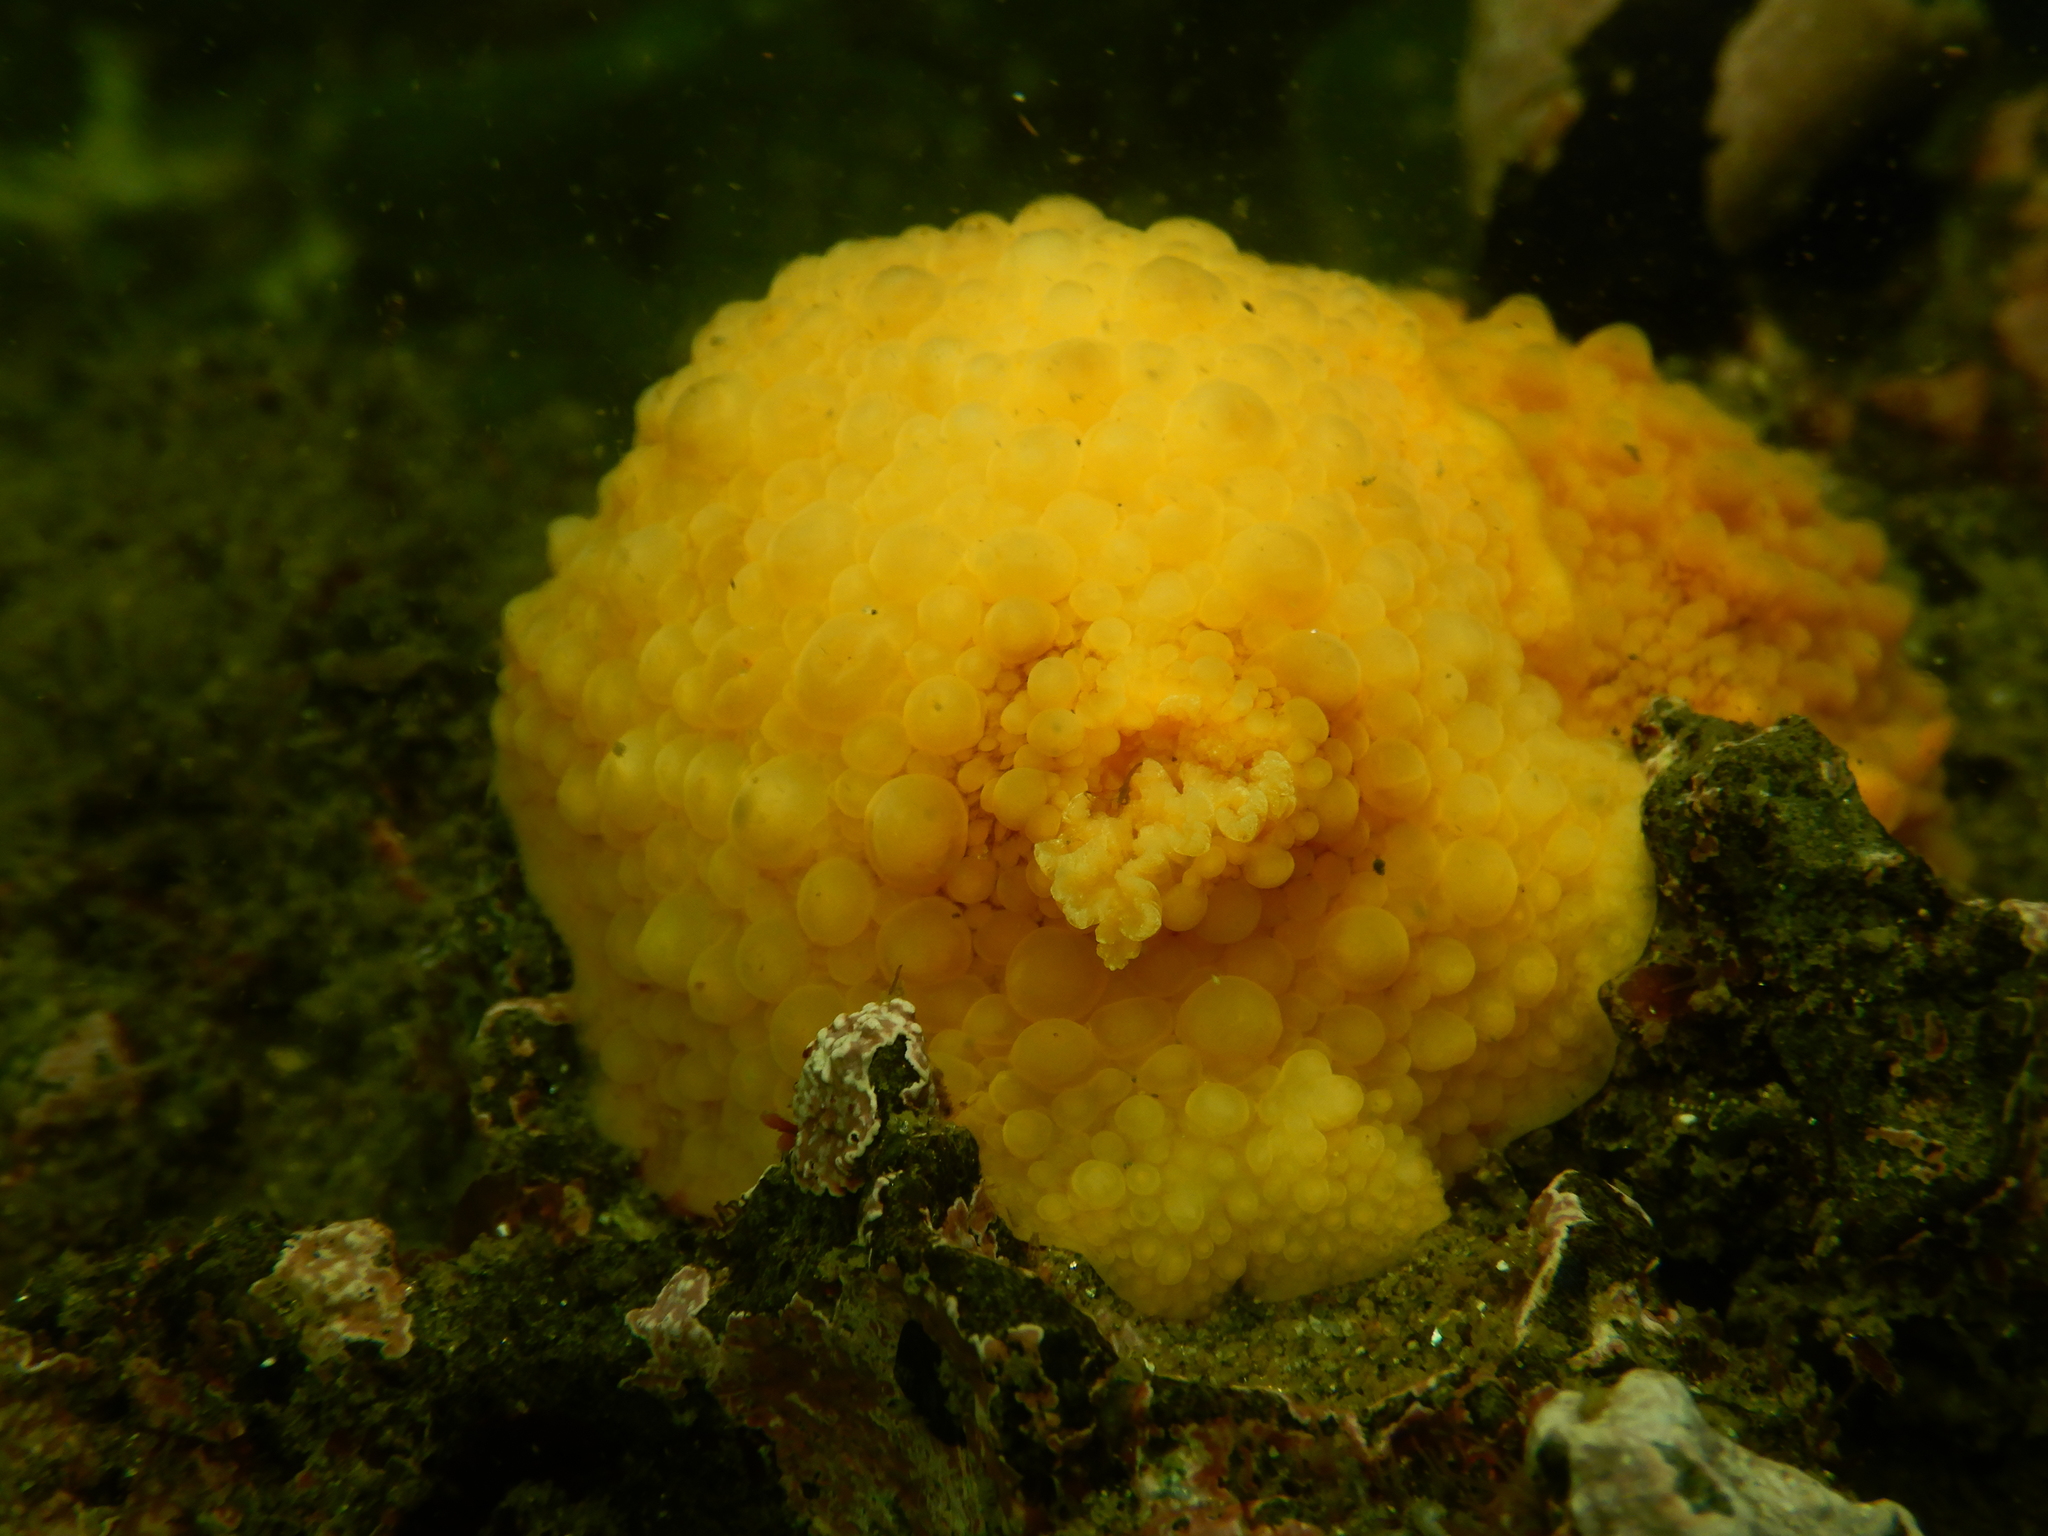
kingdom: Animalia
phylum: Mollusca
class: Gastropoda
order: Nudibranchia
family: Dorididae
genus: Doris
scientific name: Doris fontainii
